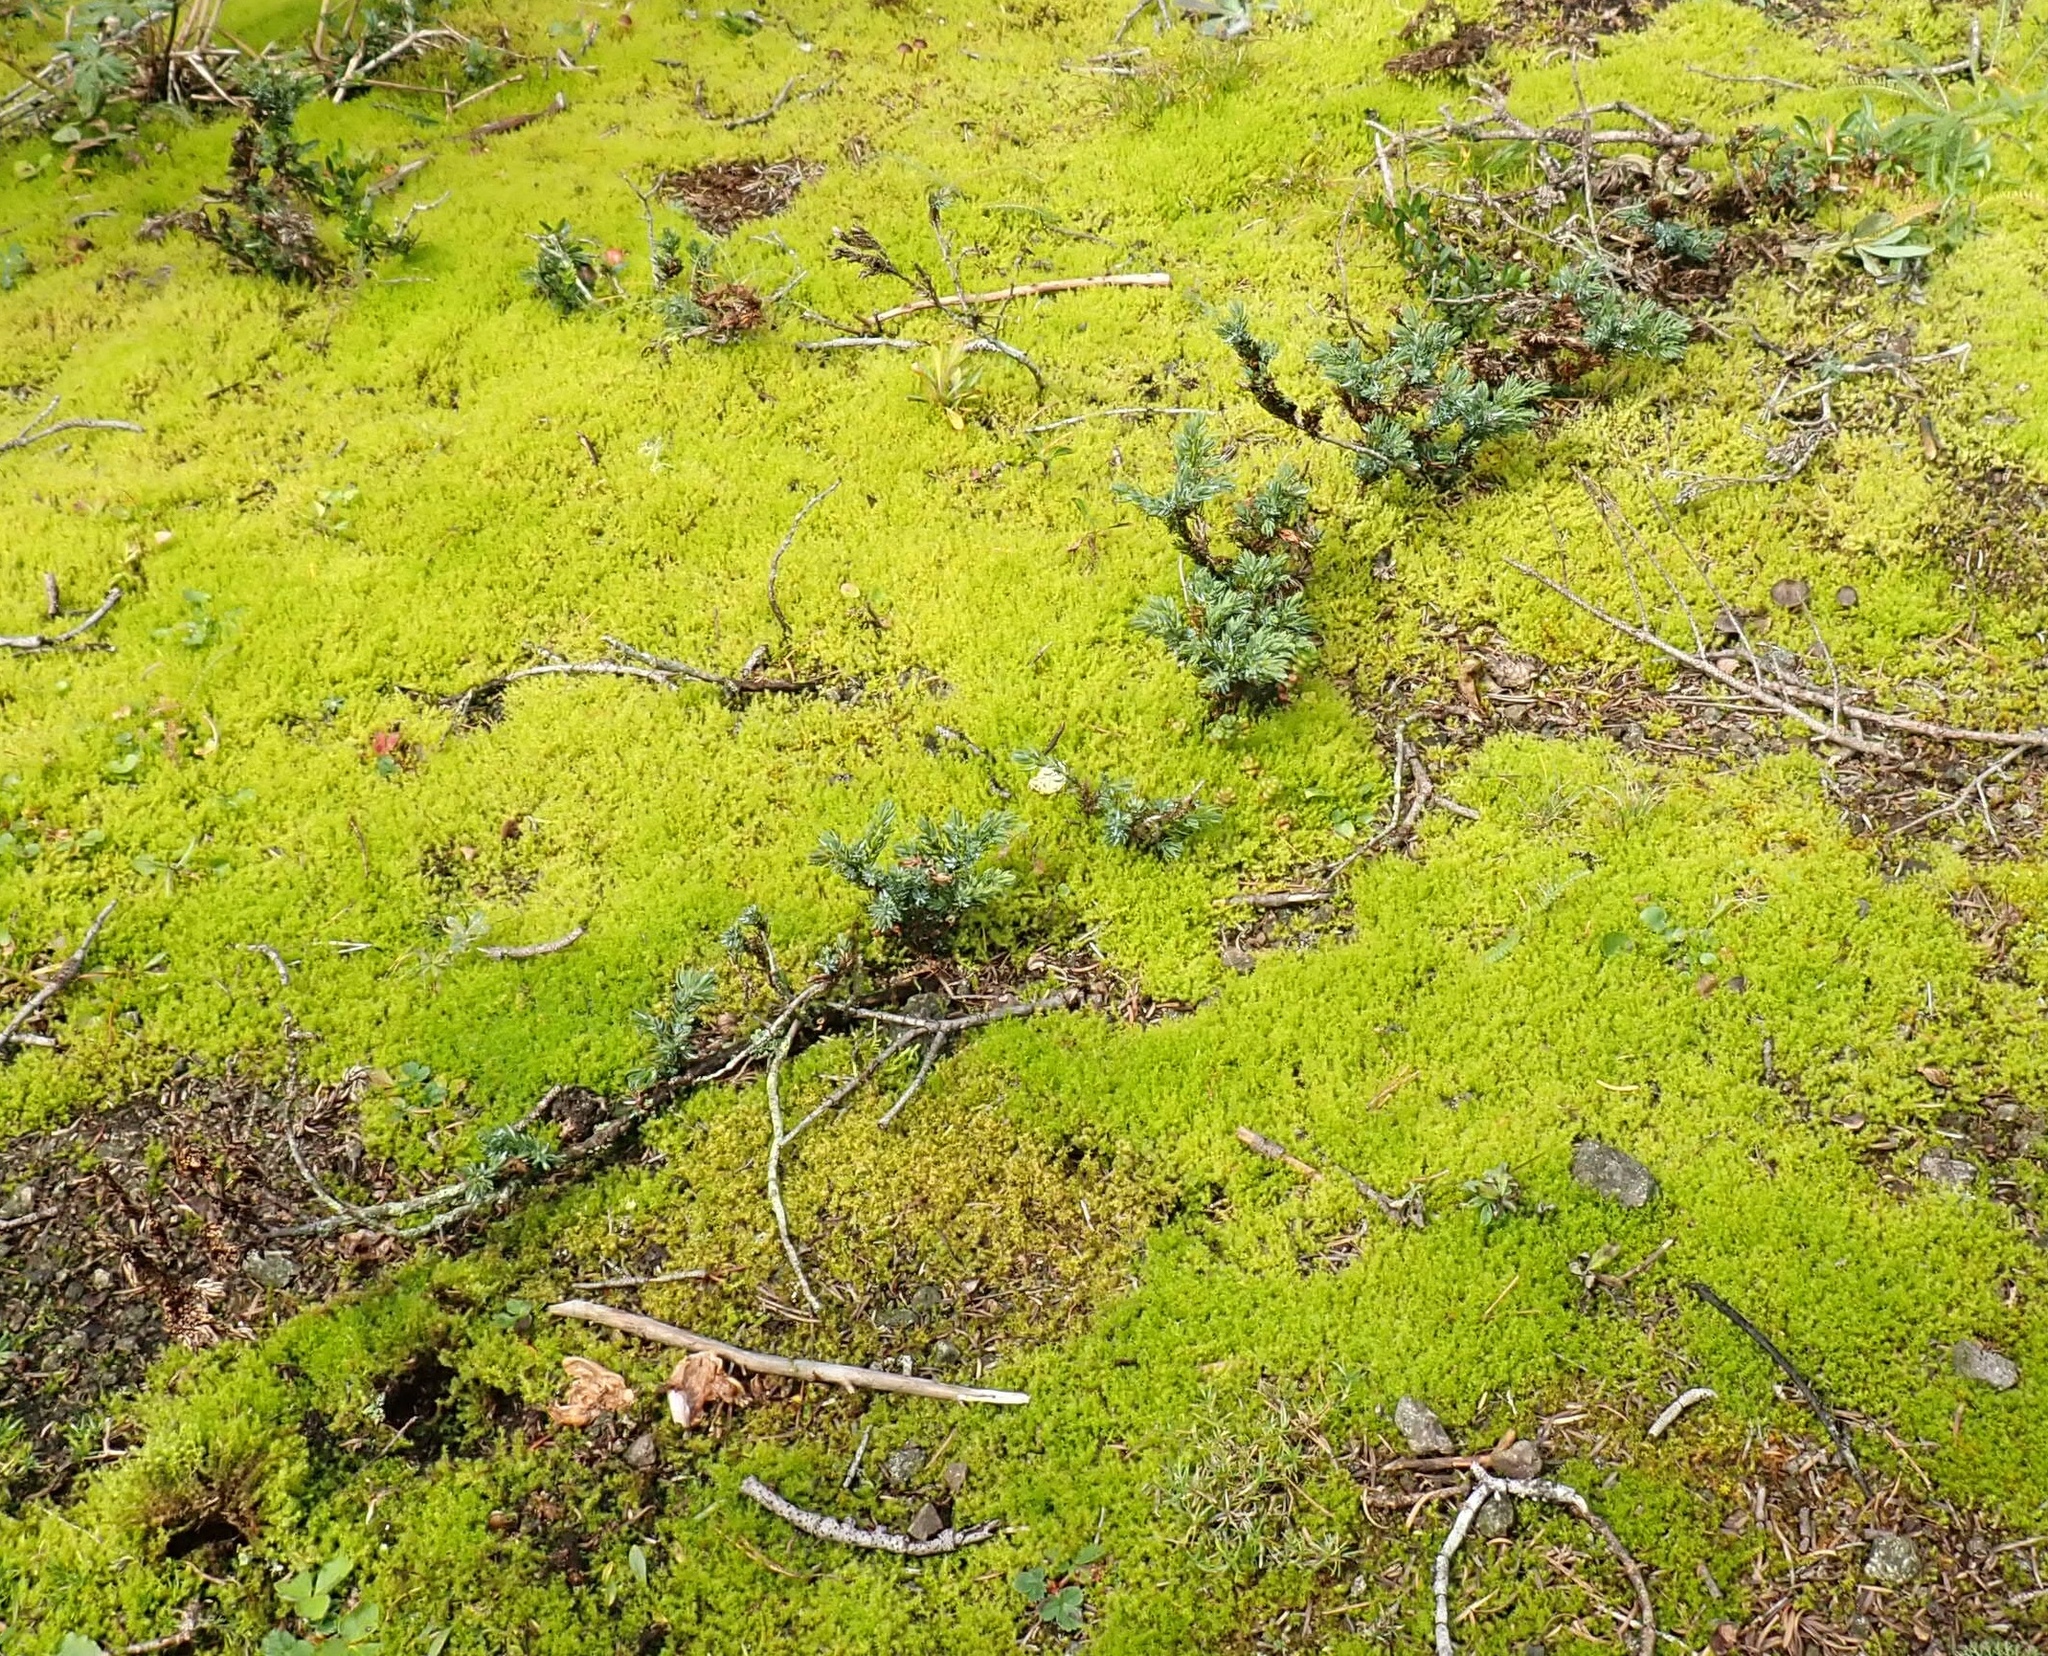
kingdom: Plantae
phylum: Tracheophyta
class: Pinopsida
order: Pinales
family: Cupressaceae
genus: Juniperus
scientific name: Juniperus communis
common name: Common juniper
